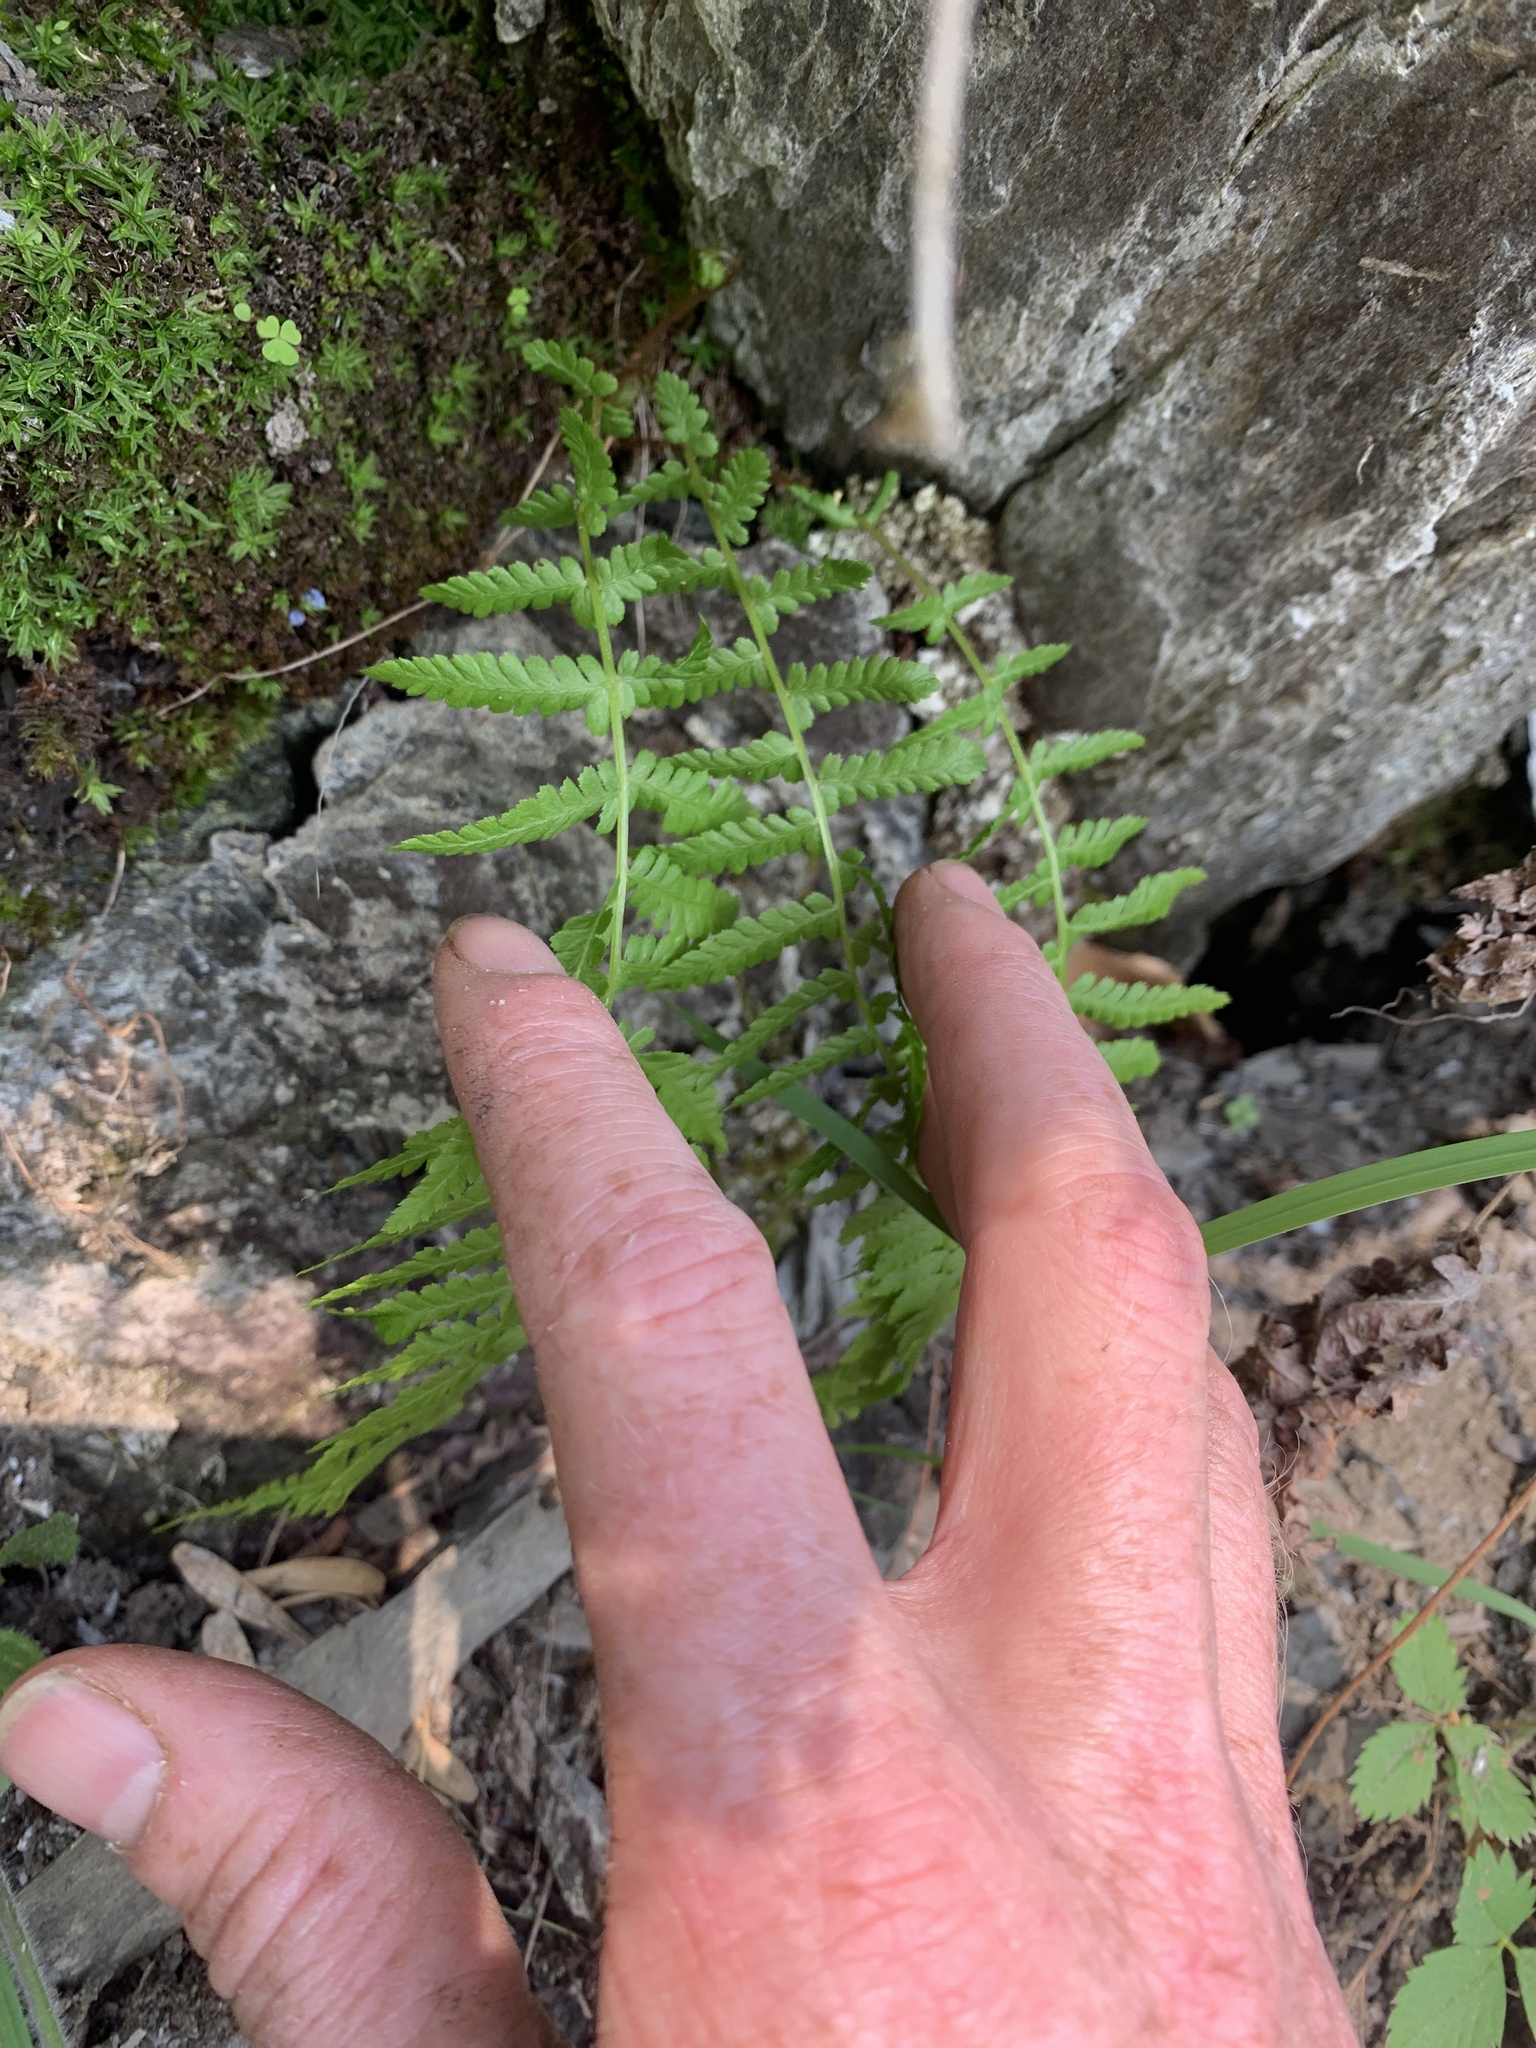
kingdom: Plantae
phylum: Tracheophyta
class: Polypodiopsida
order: Polypodiales
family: Athyriaceae
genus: Athyrium
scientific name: Athyrium angustum
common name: Northern lady fern
